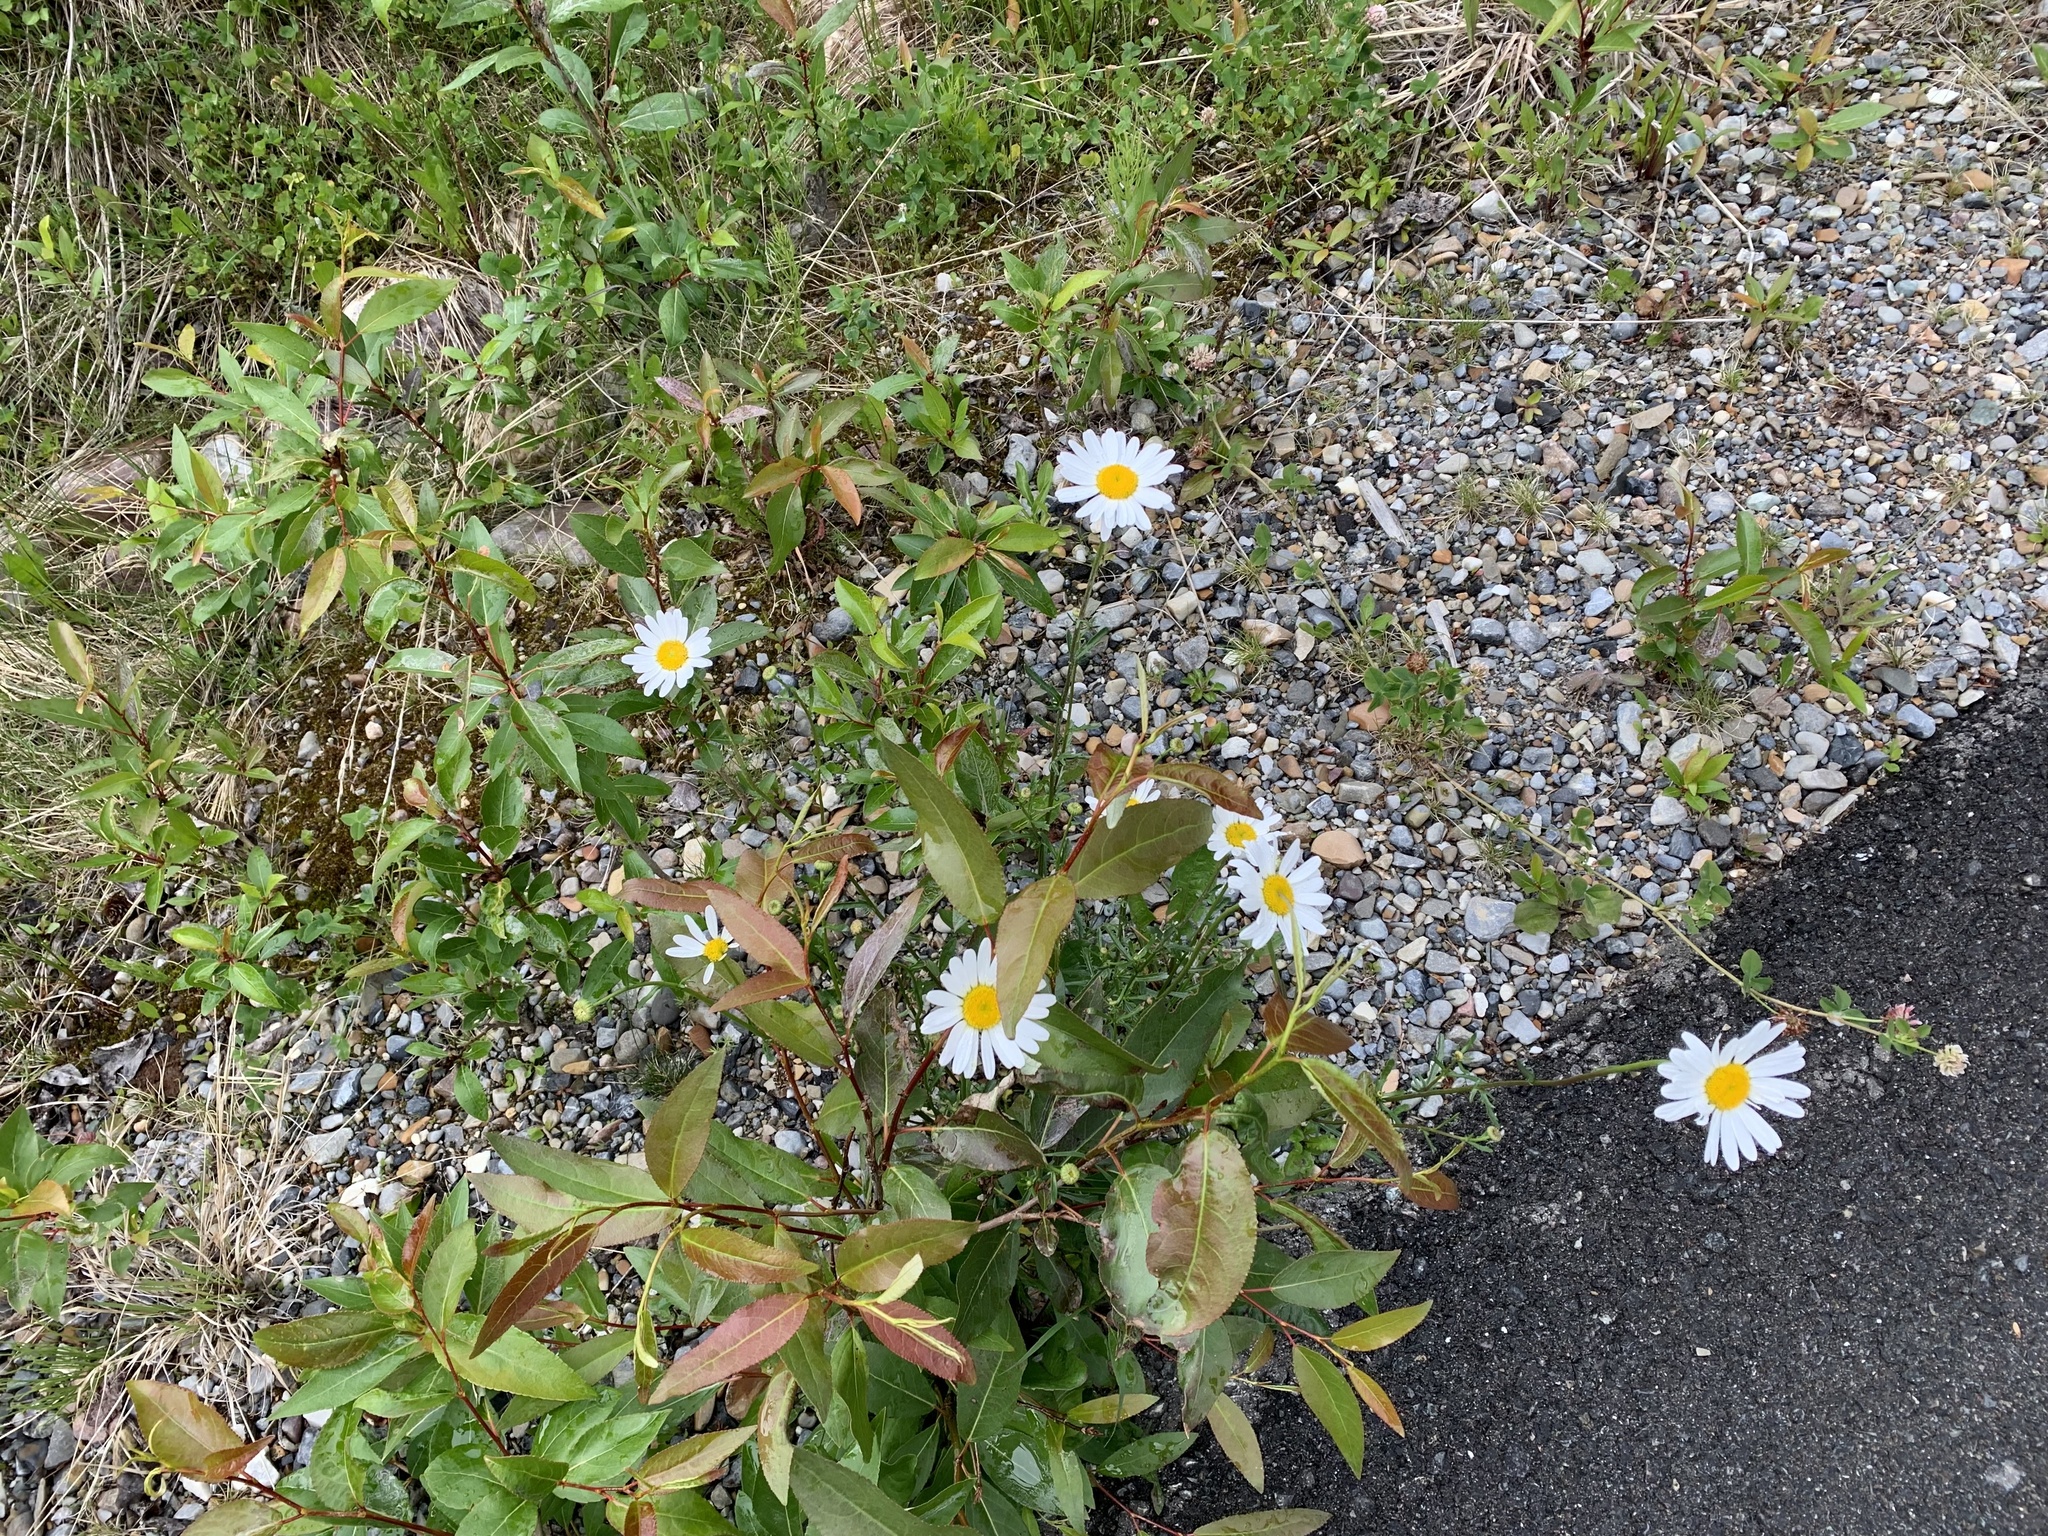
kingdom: Plantae
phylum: Tracheophyta
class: Magnoliopsida
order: Asterales
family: Asteraceae
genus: Leucanthemum
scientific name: Leucanthemum vulgare
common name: Oxeye daisy
